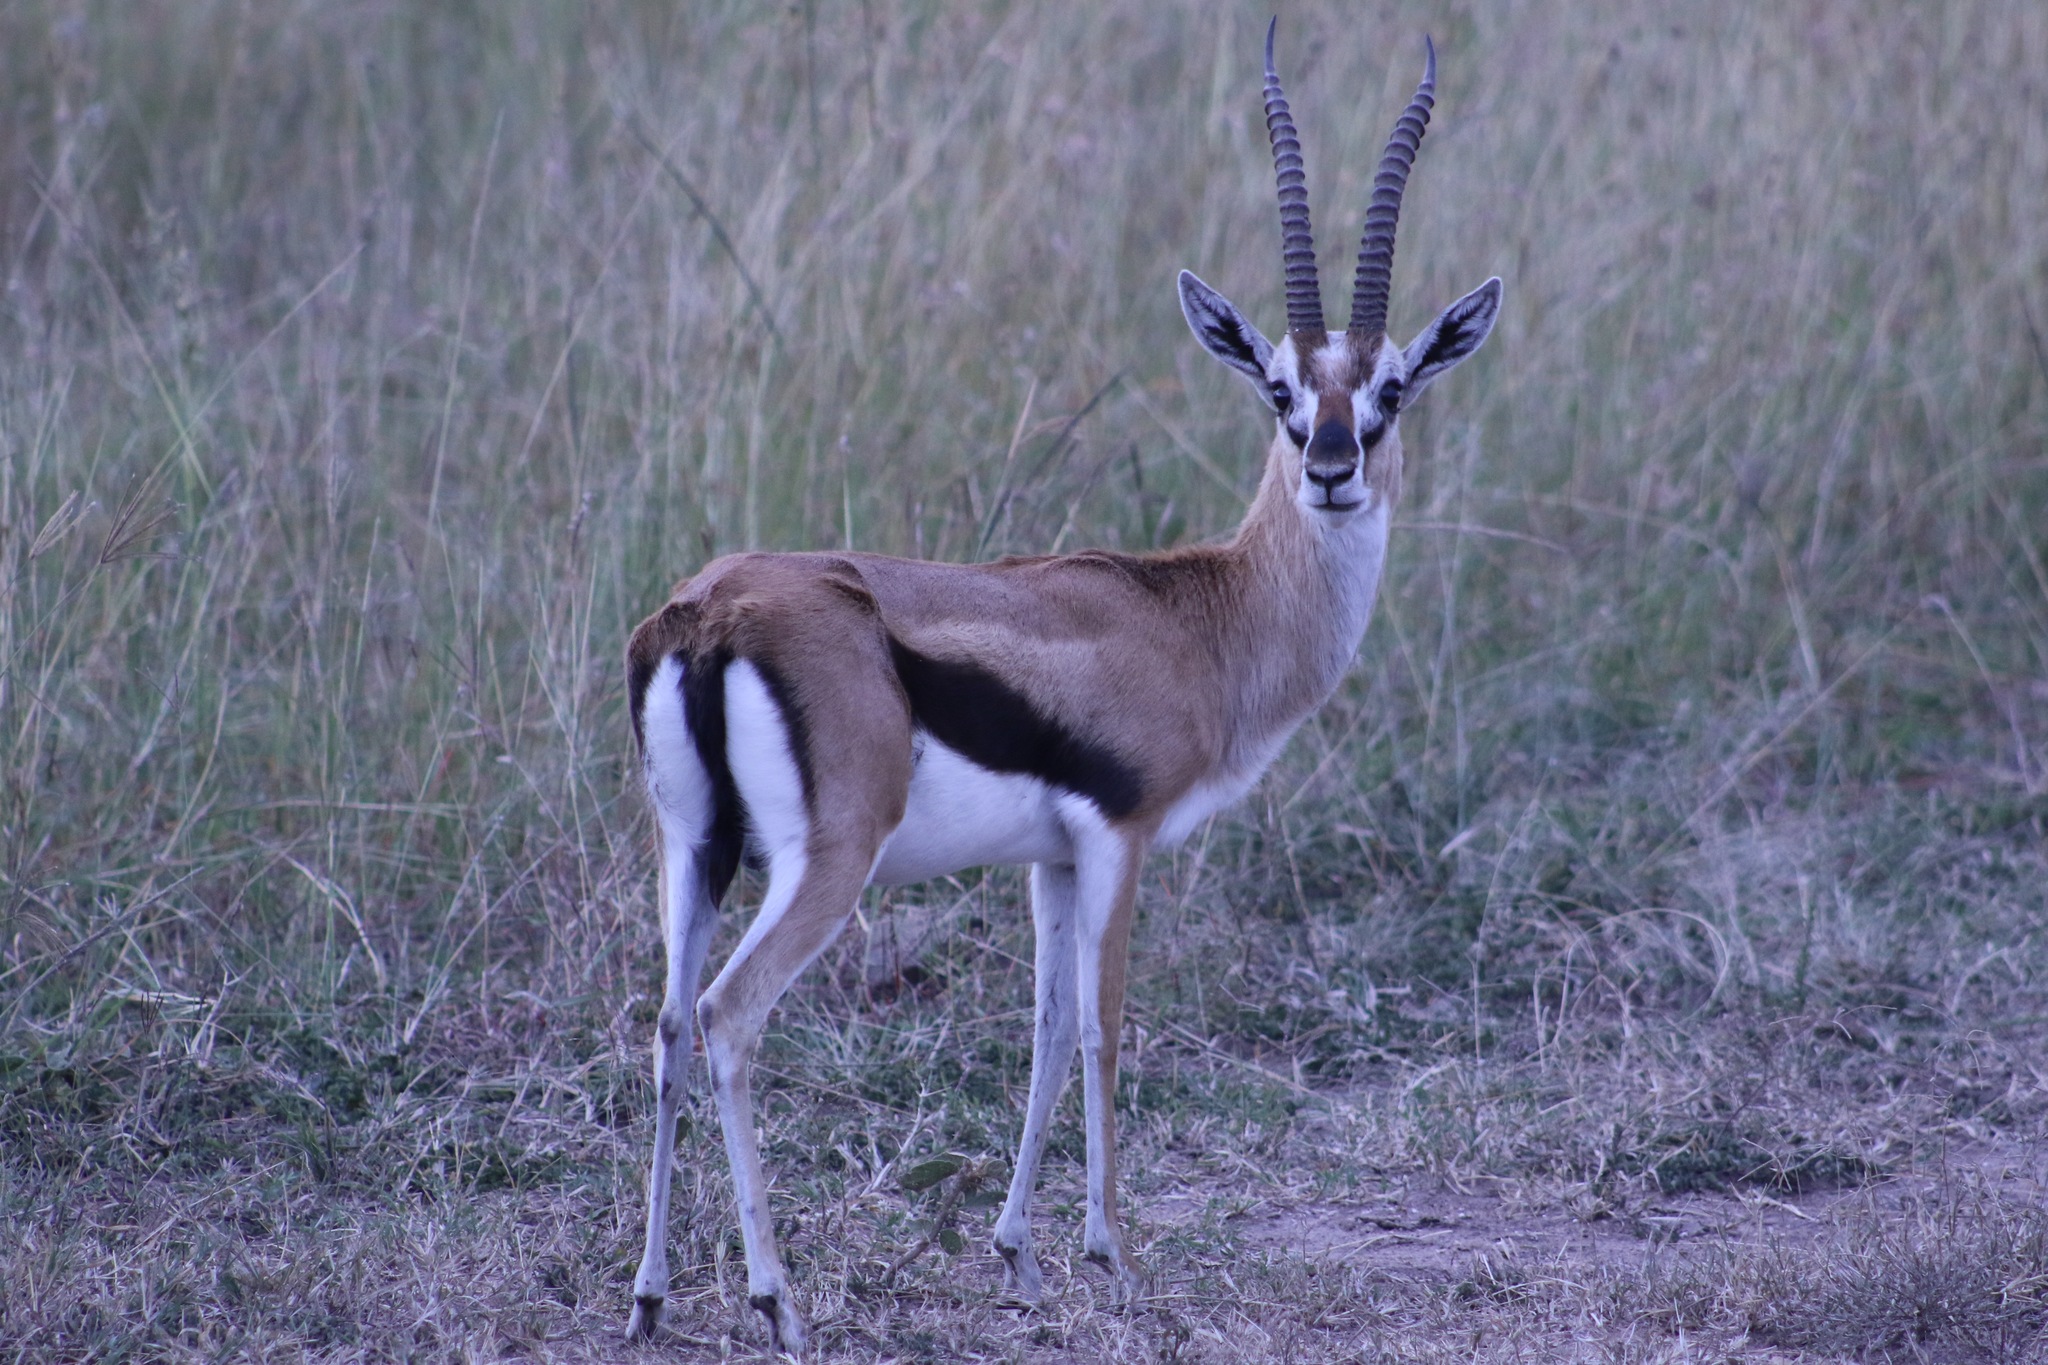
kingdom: Animalia
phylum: Chordata
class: Mammalia
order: Artiodactyla
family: Bovidae
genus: Eudorcas
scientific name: Eudorcas thomsonii
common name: Thomson's gazelle
